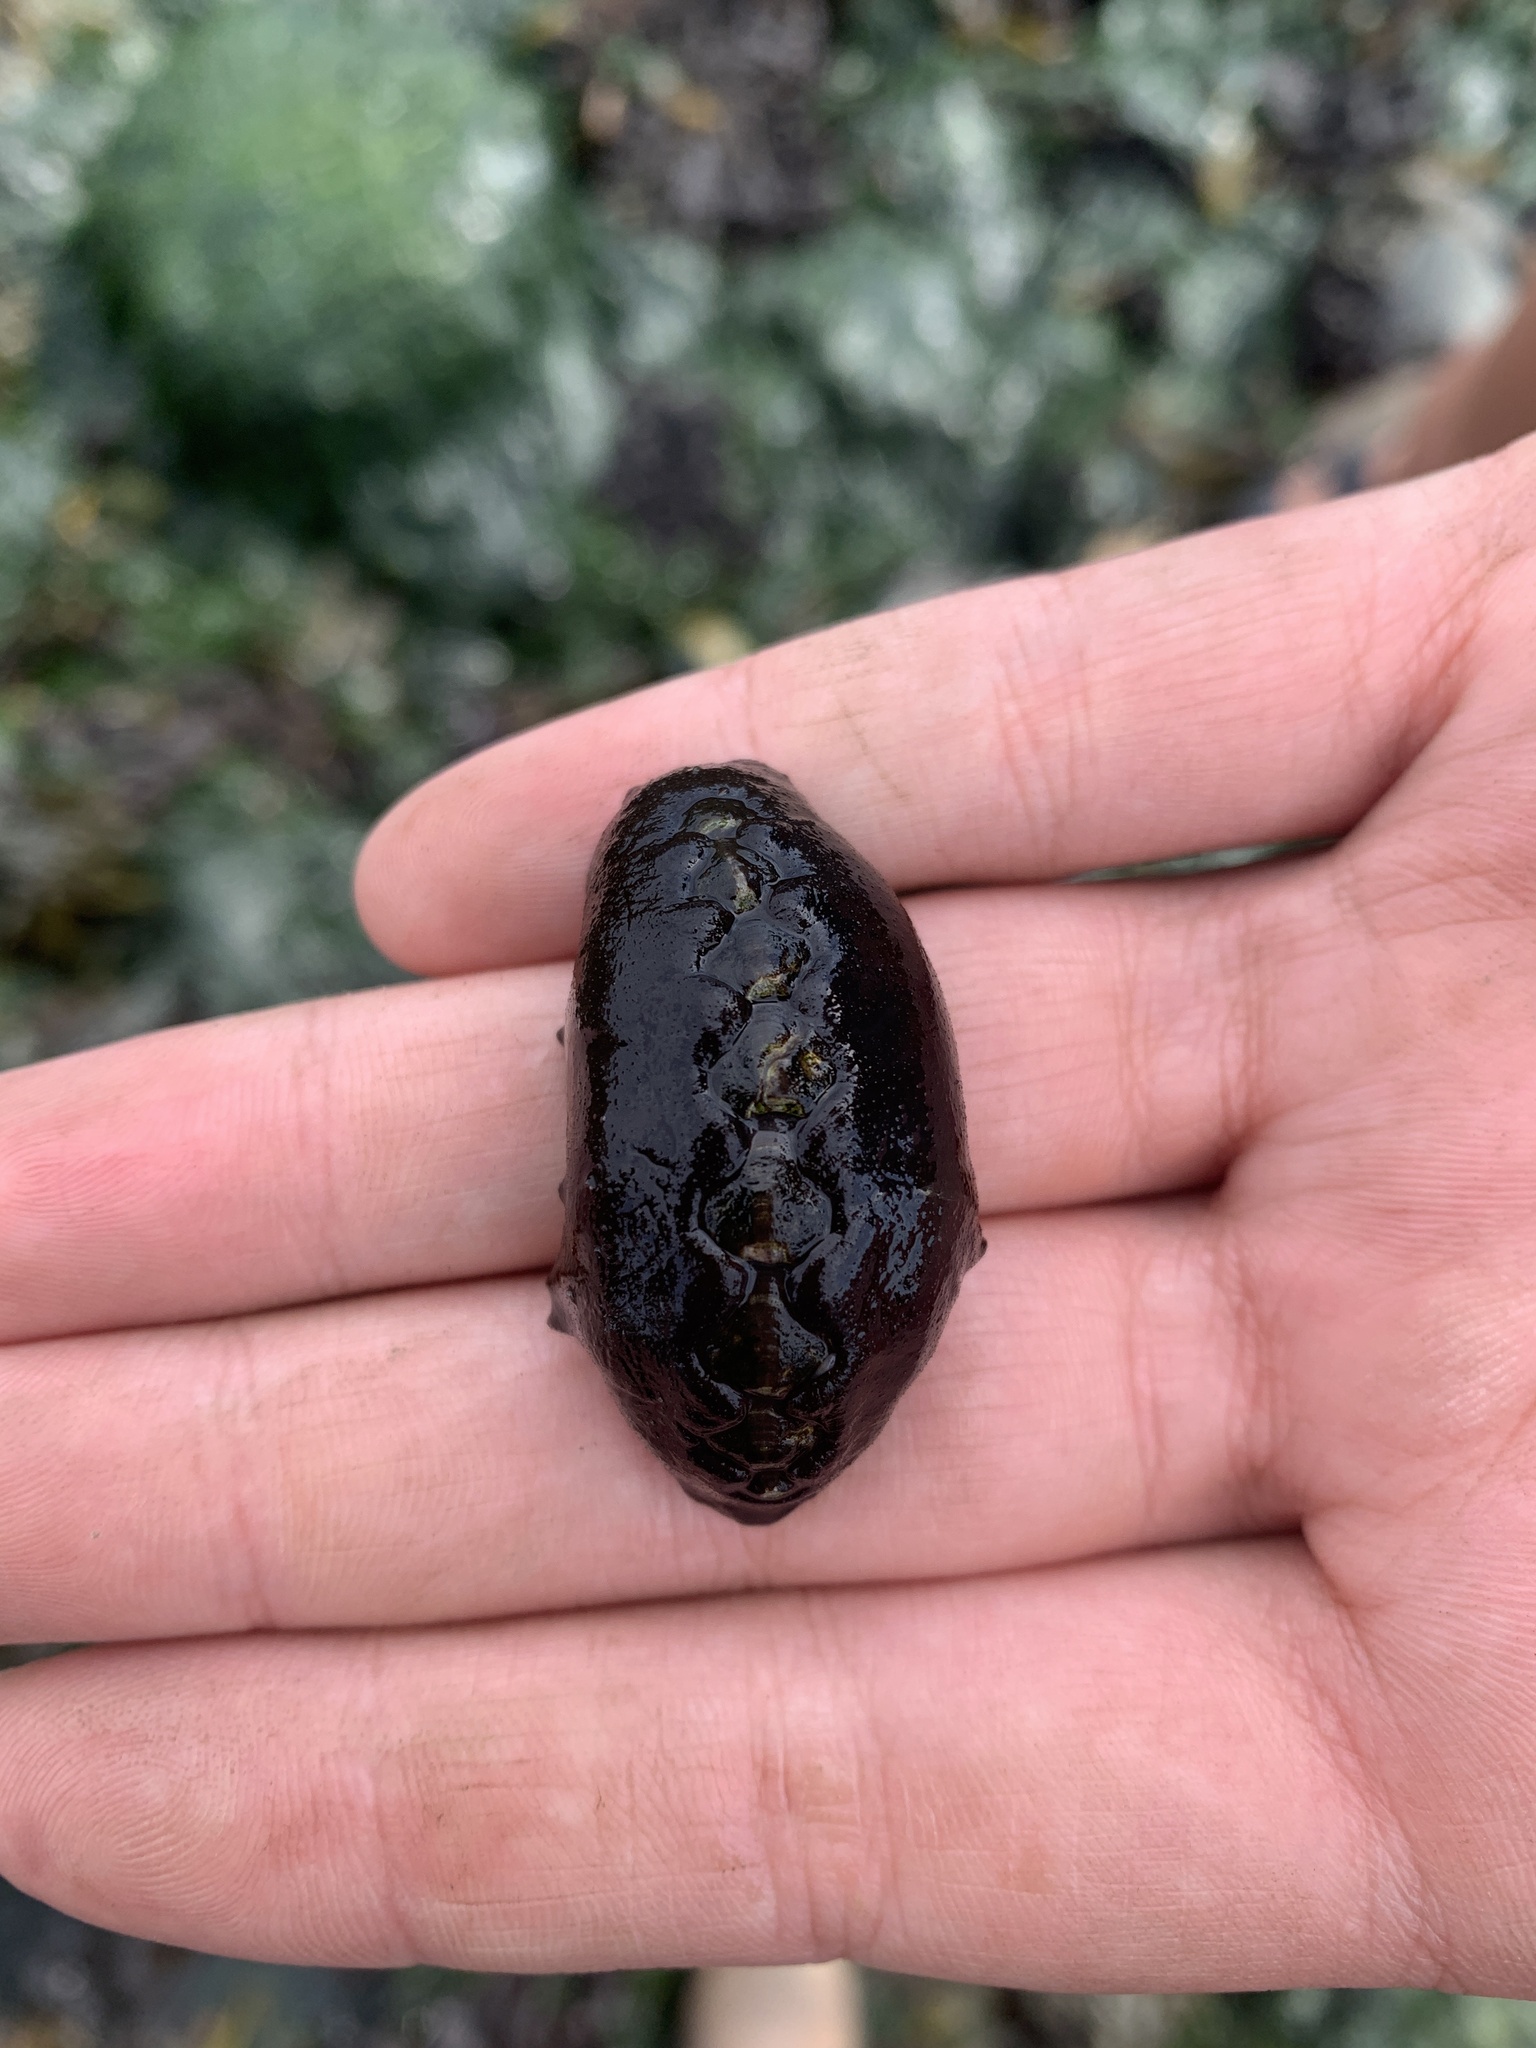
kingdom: Animalia
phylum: Mollusca
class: Polyplacophora
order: Chitonida
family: Mopaliidae
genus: Katharina
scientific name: Katharina tunicata
